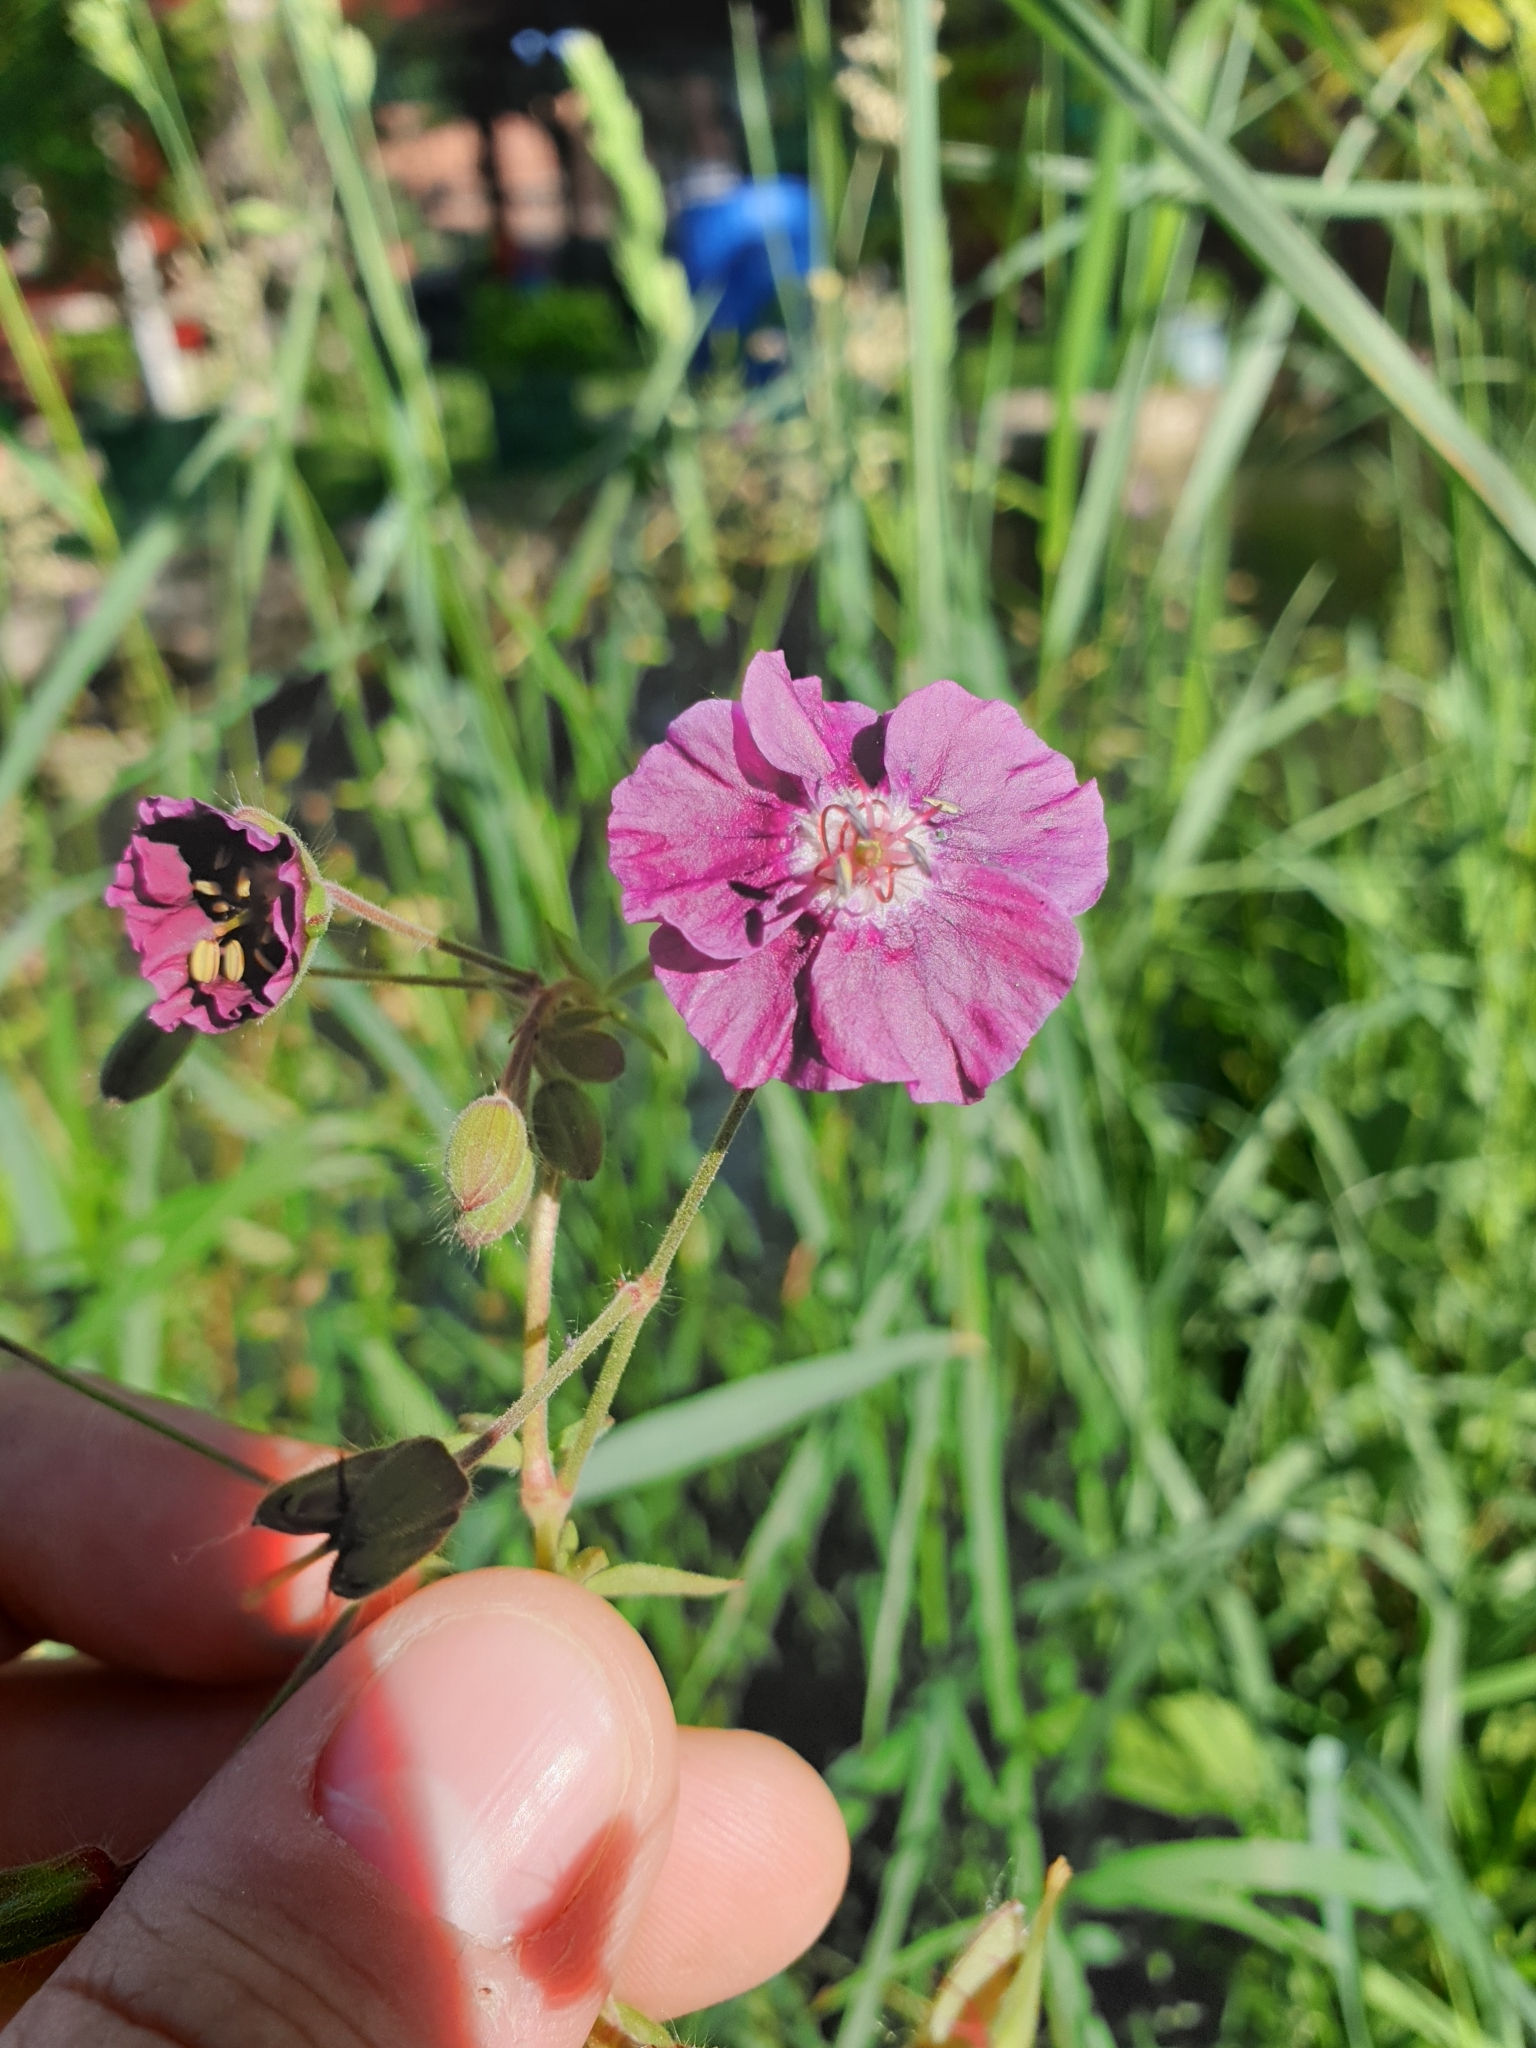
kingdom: Plantae
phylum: Tracheophyta
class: Magnoliopsida
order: Geraniales
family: Geraniaceae
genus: Geranium
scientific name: Geranium phaeum
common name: Dusky crane's-bill
